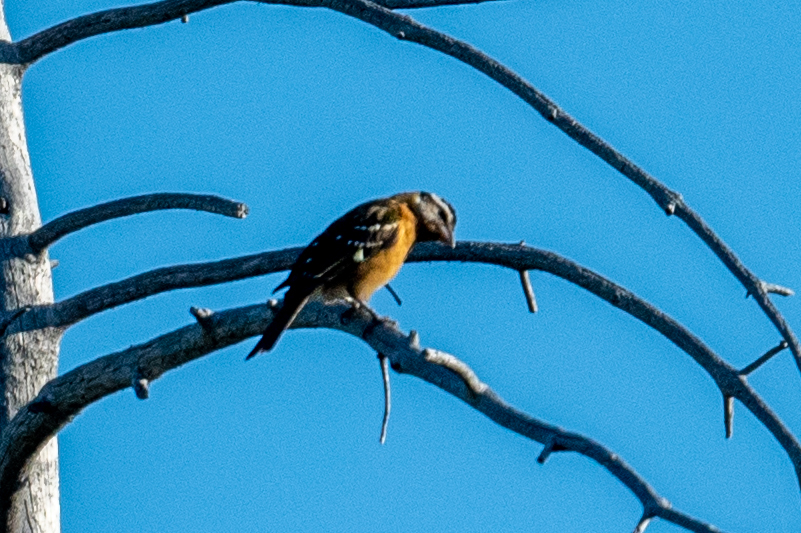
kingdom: Animalia
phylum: Chordata
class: Aves
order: Passeriformes
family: Cardinalidae
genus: Pheucticus
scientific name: Pheucticus melanocephalus
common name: Black-headed grosbeak
